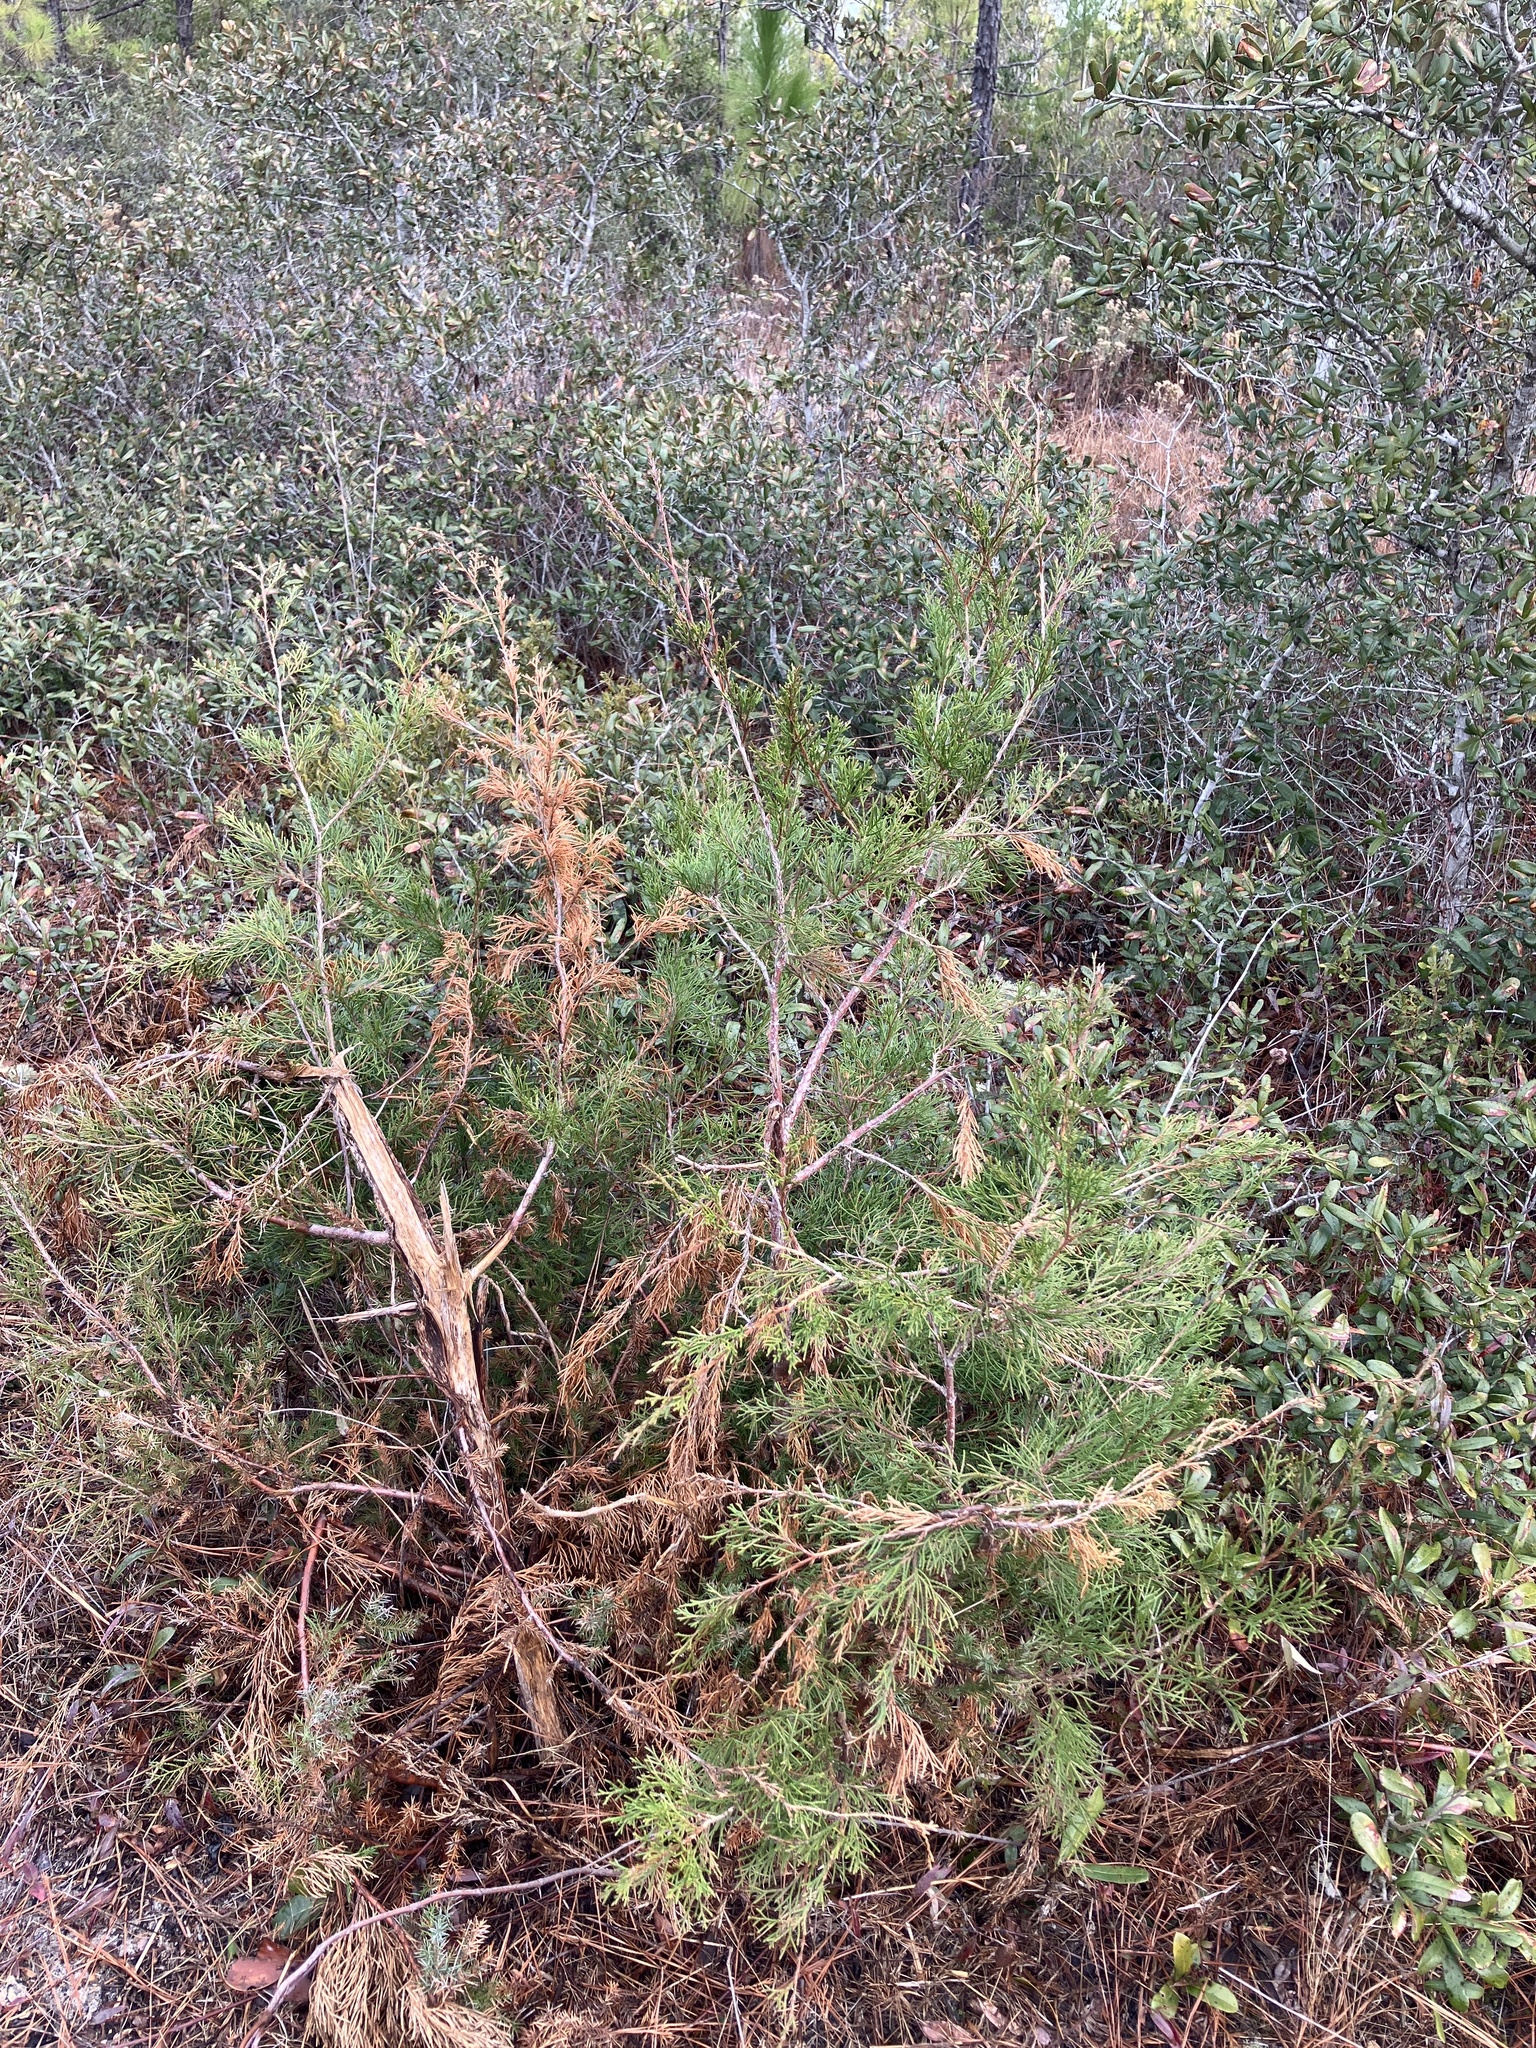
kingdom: Plantae
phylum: Tracheophyta
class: Pinopsida
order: Pinales
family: Cupressaceae
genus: Juniperus
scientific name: Juniperus virginiana
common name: Red juniper
